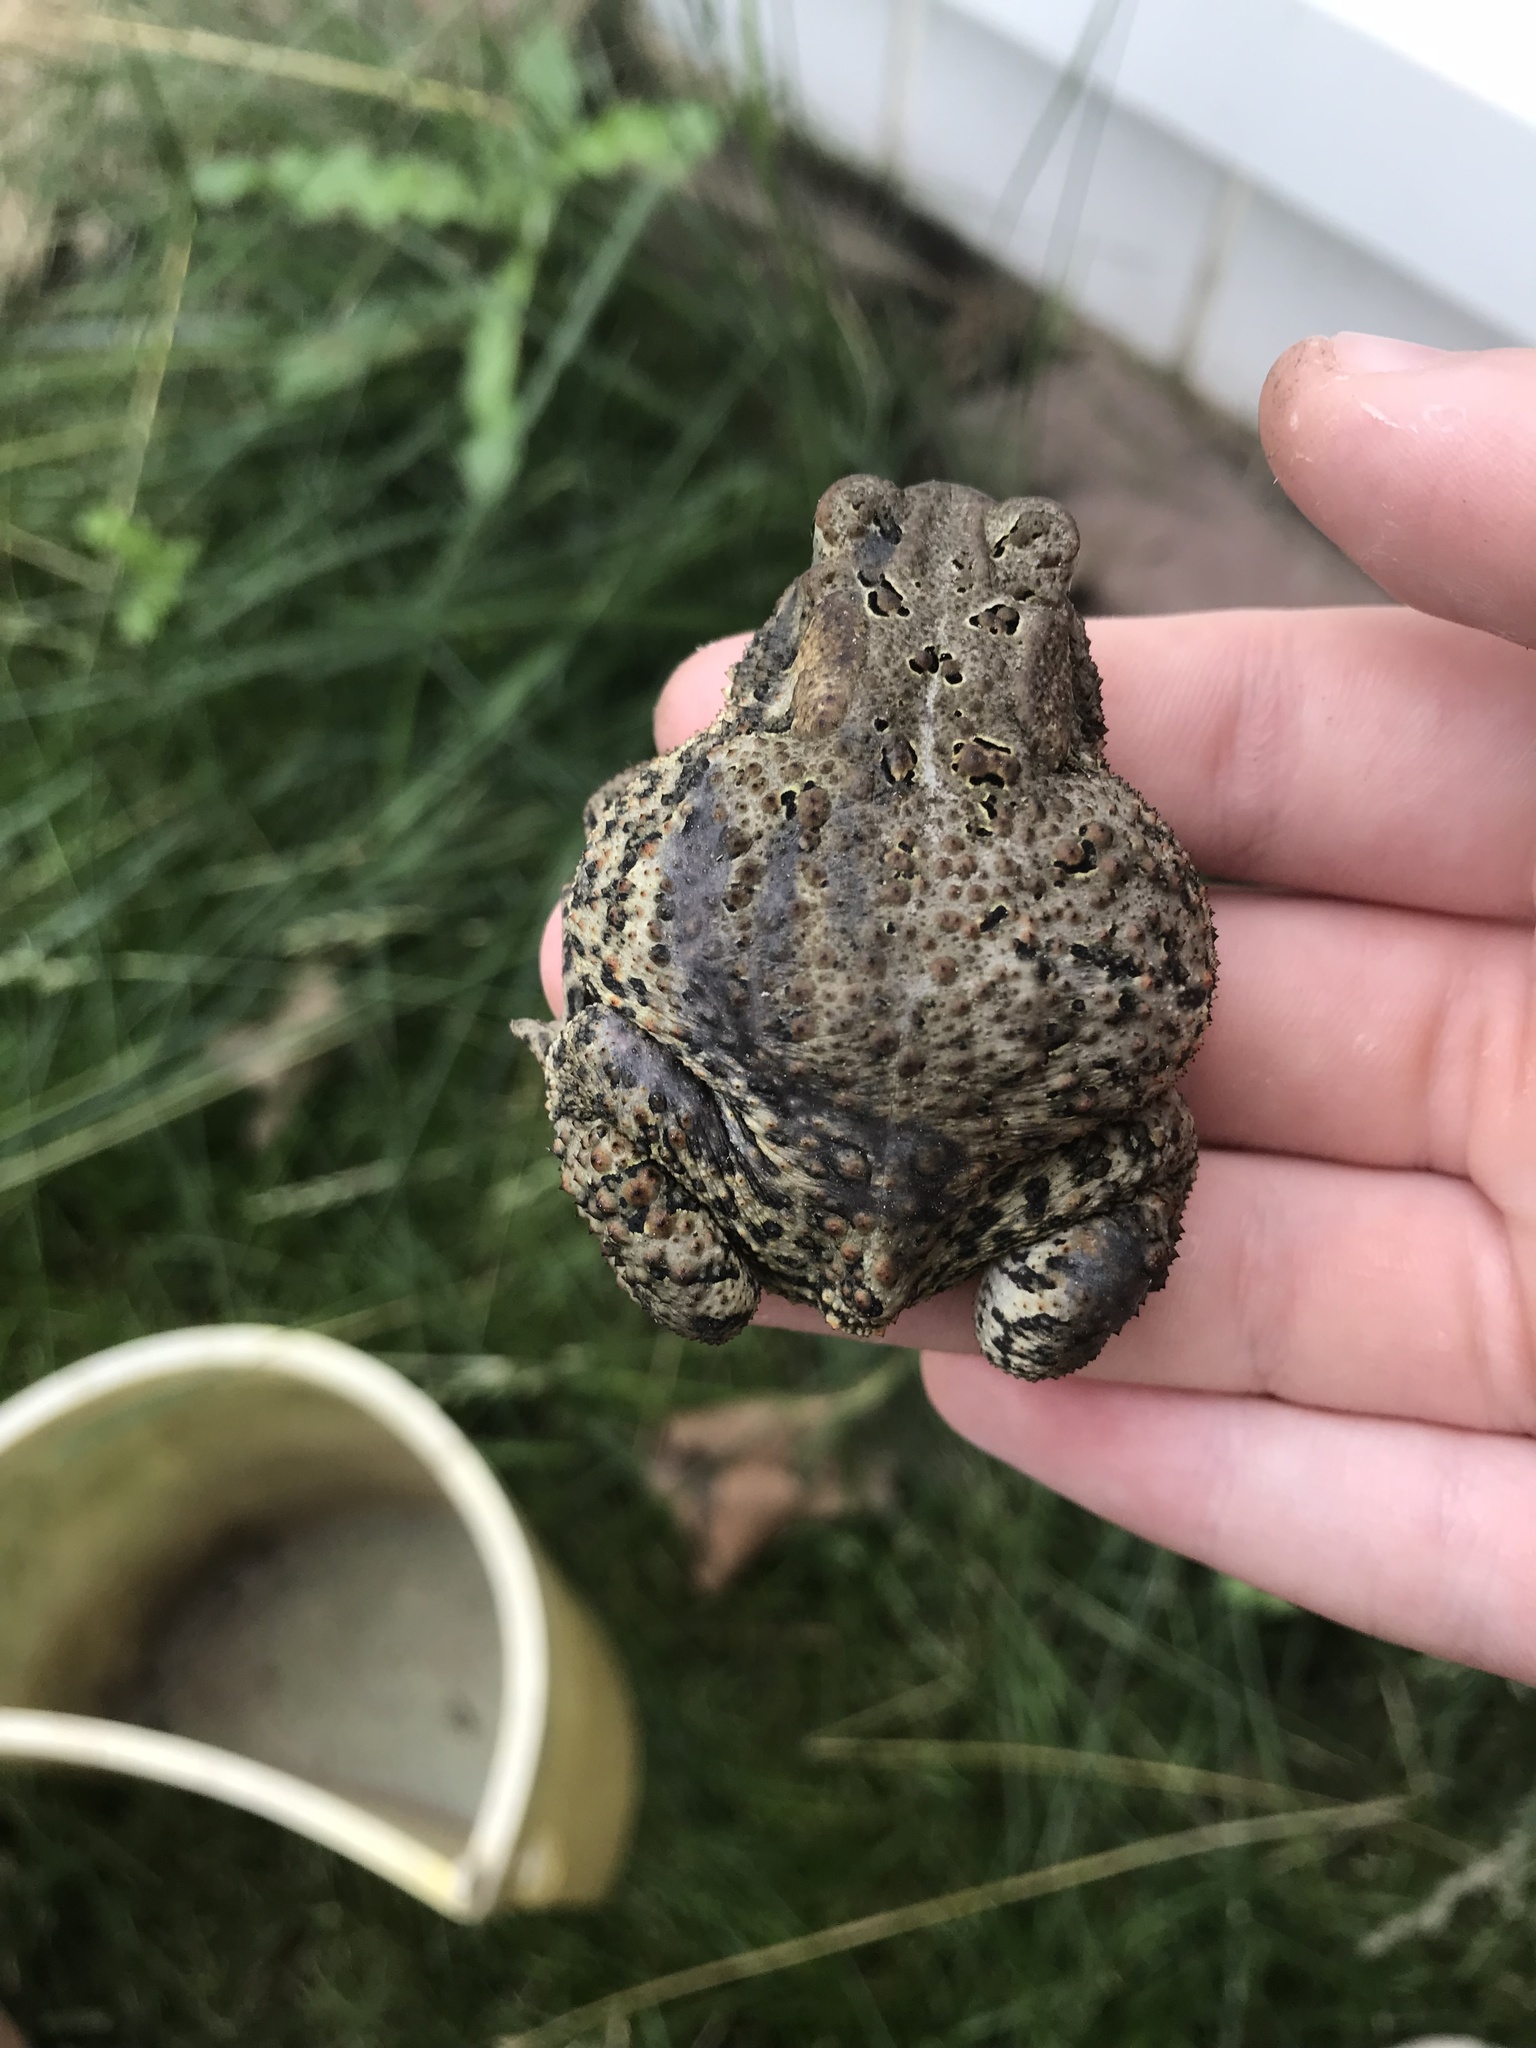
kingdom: Animalia
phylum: Chordata
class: Amphibia
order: Anura
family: Bufonidae
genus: Anaxyrus
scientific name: Anaxyrus americanus
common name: American toad
